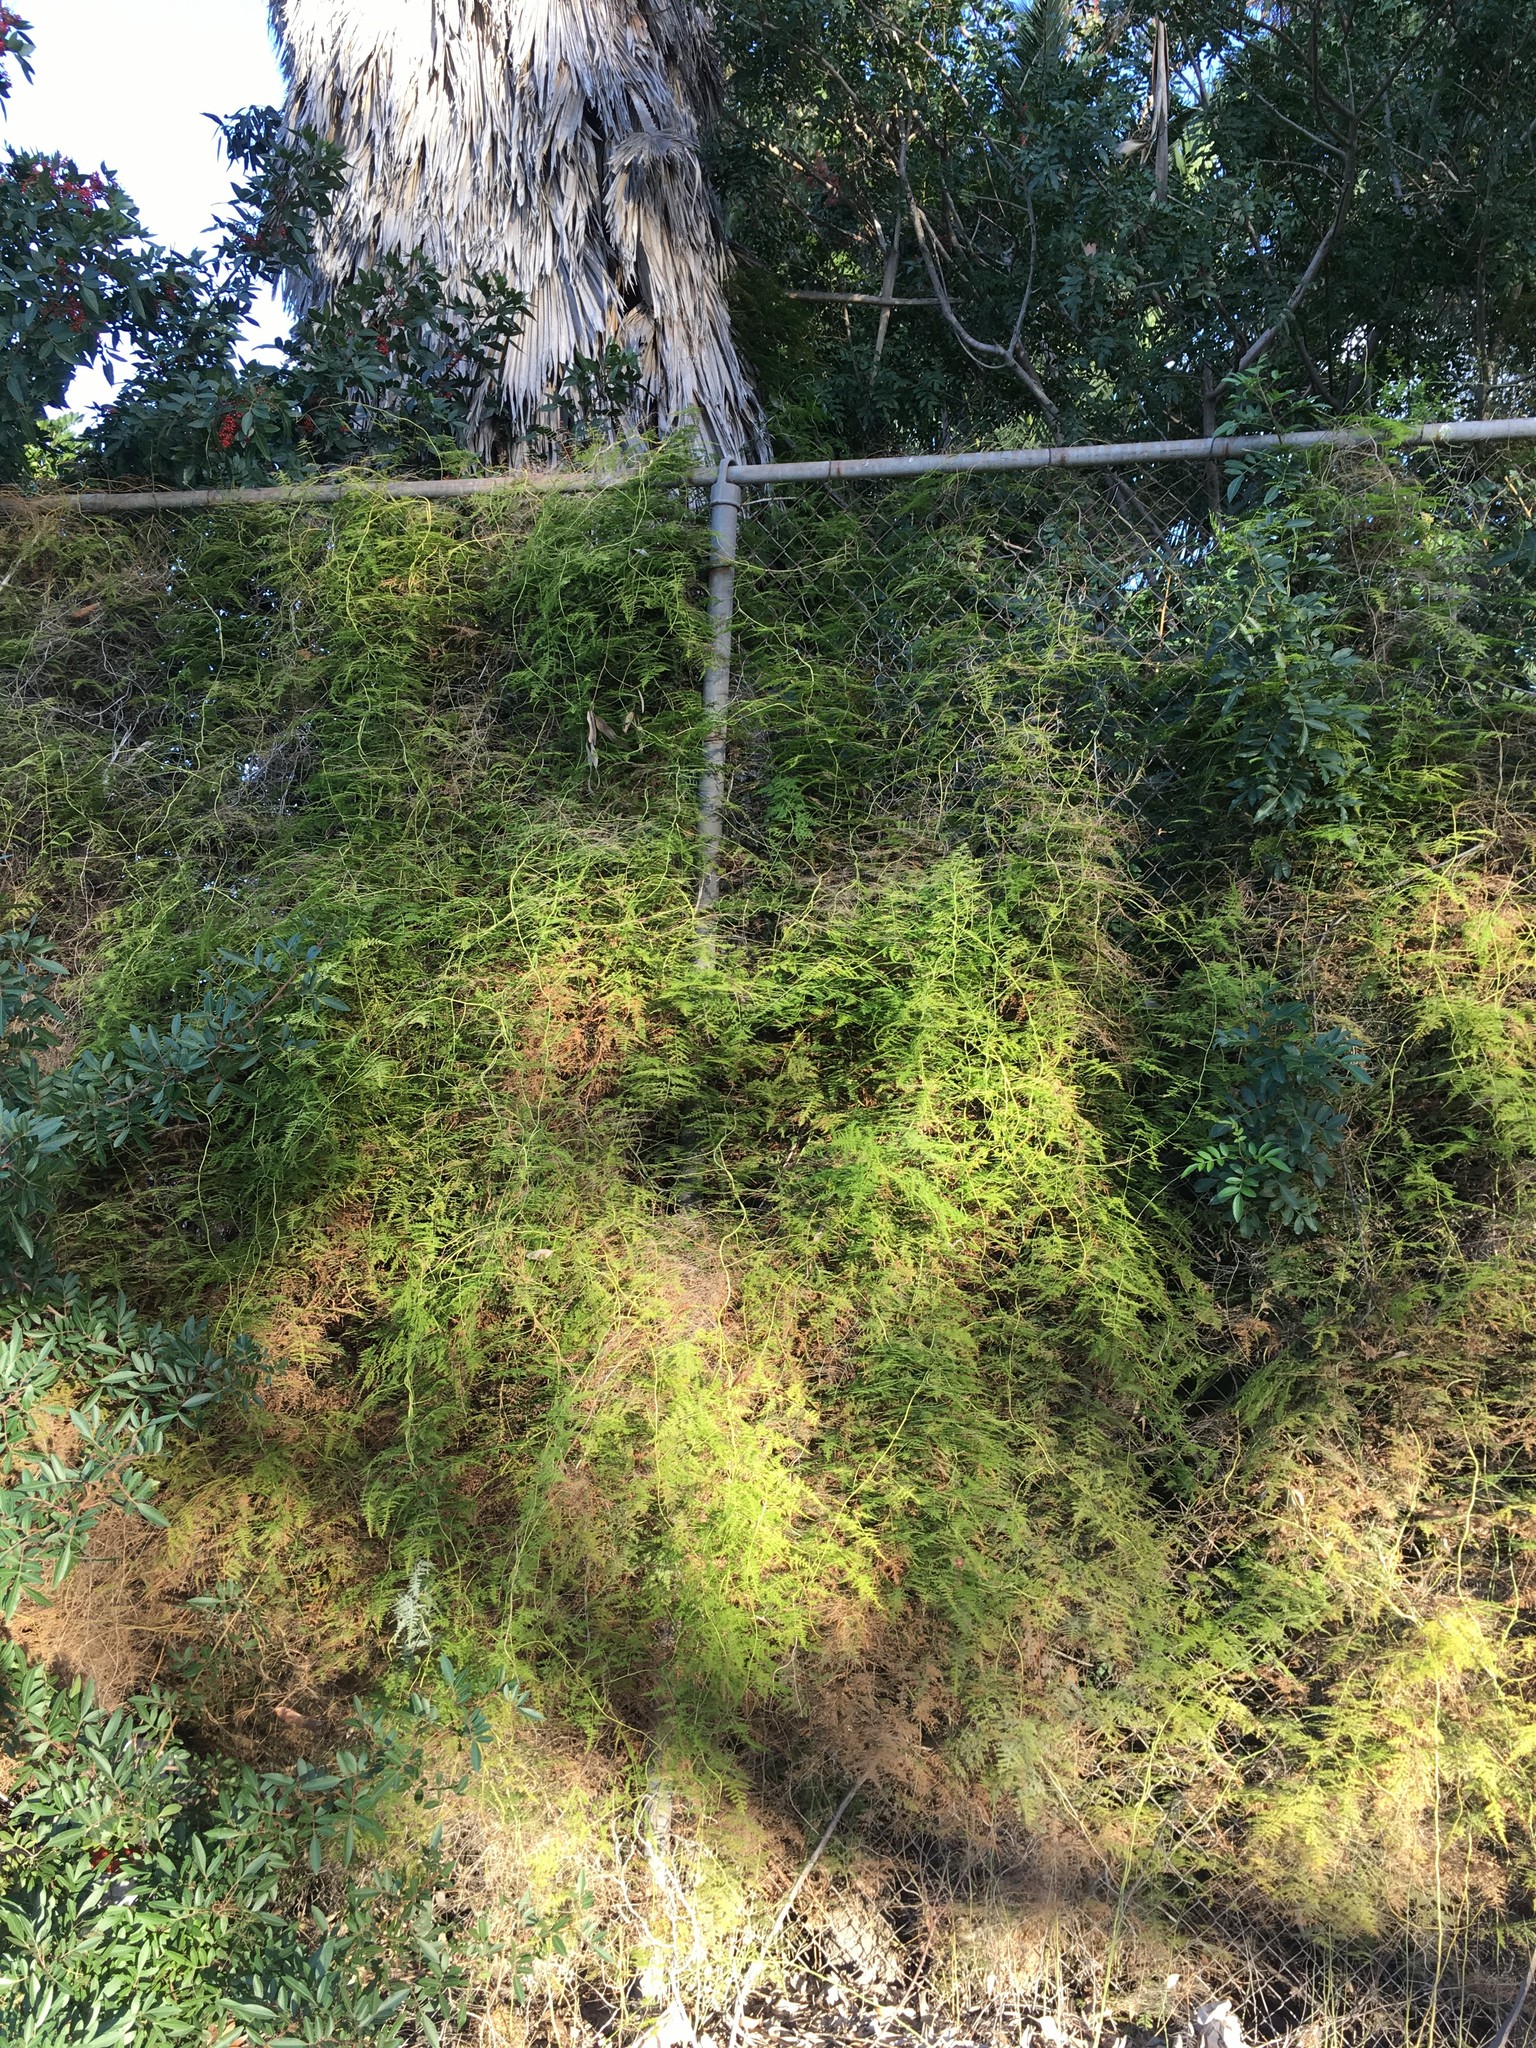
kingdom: Plantae
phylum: Tracheophyta
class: Liliopsida
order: Asparagales
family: Asparagaceae
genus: Asparagus
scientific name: Asparagus setaceus
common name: Common asparagus fern
